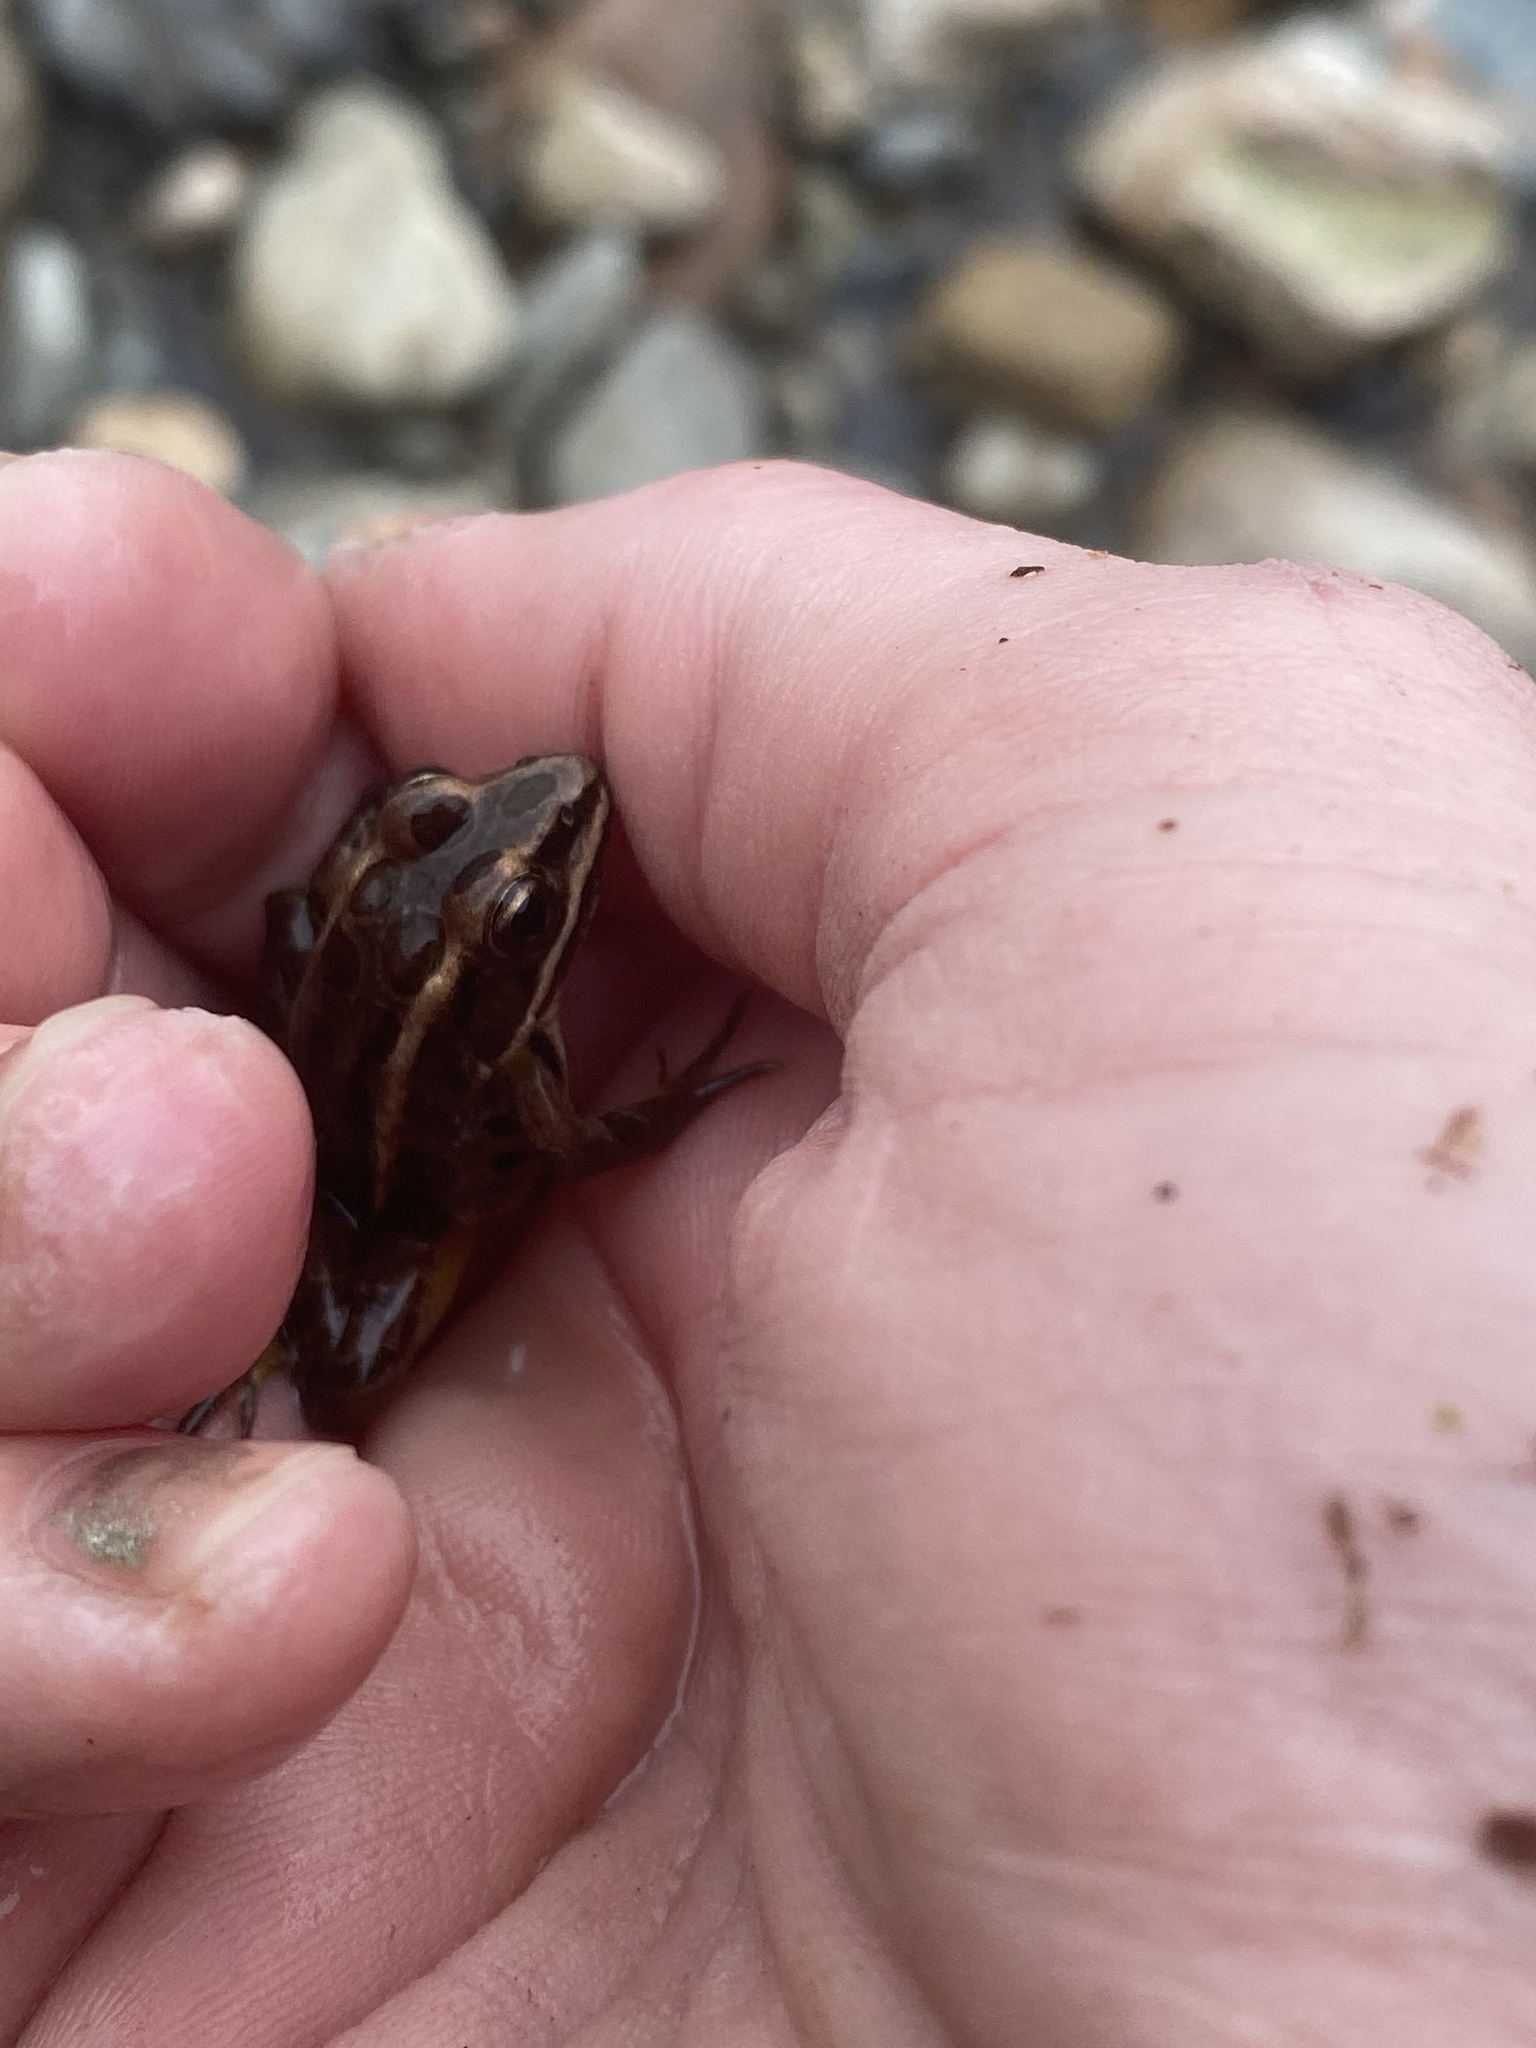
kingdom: Animalia
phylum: Chordata
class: Amphibia
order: Anura
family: Ranidae
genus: Lithobates
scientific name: Lithobates palustris
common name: Pickerel frog
